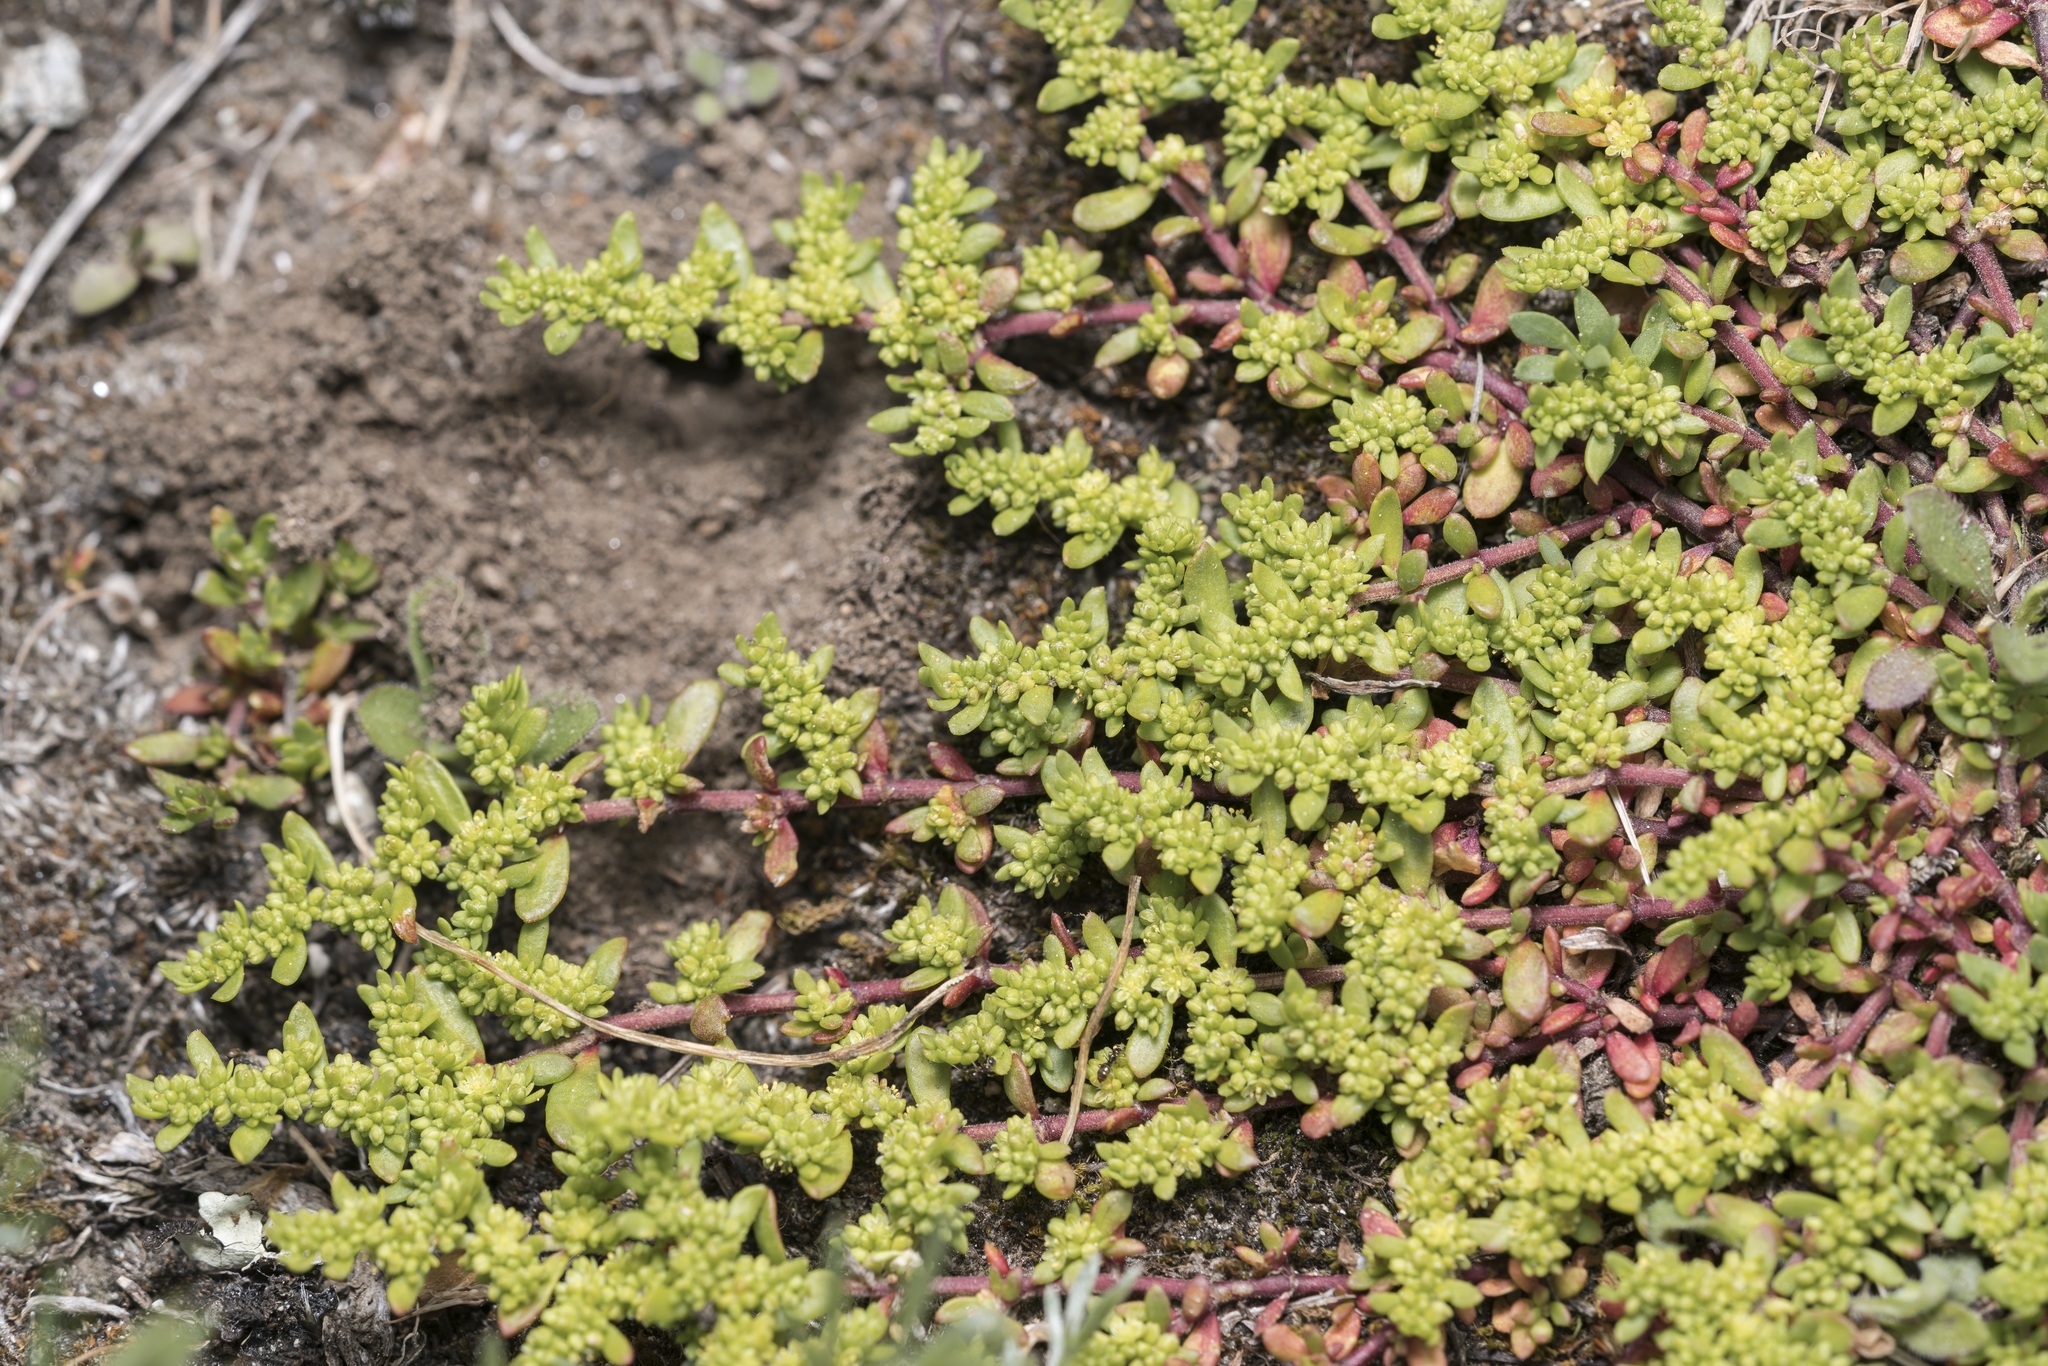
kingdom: Plantae
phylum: Tracheophyta
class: Magnoliopsida
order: Caryophyllales
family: Caryophyllaceae
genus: Herniaria
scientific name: Herniaria glabra
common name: Smooth rupturewort
